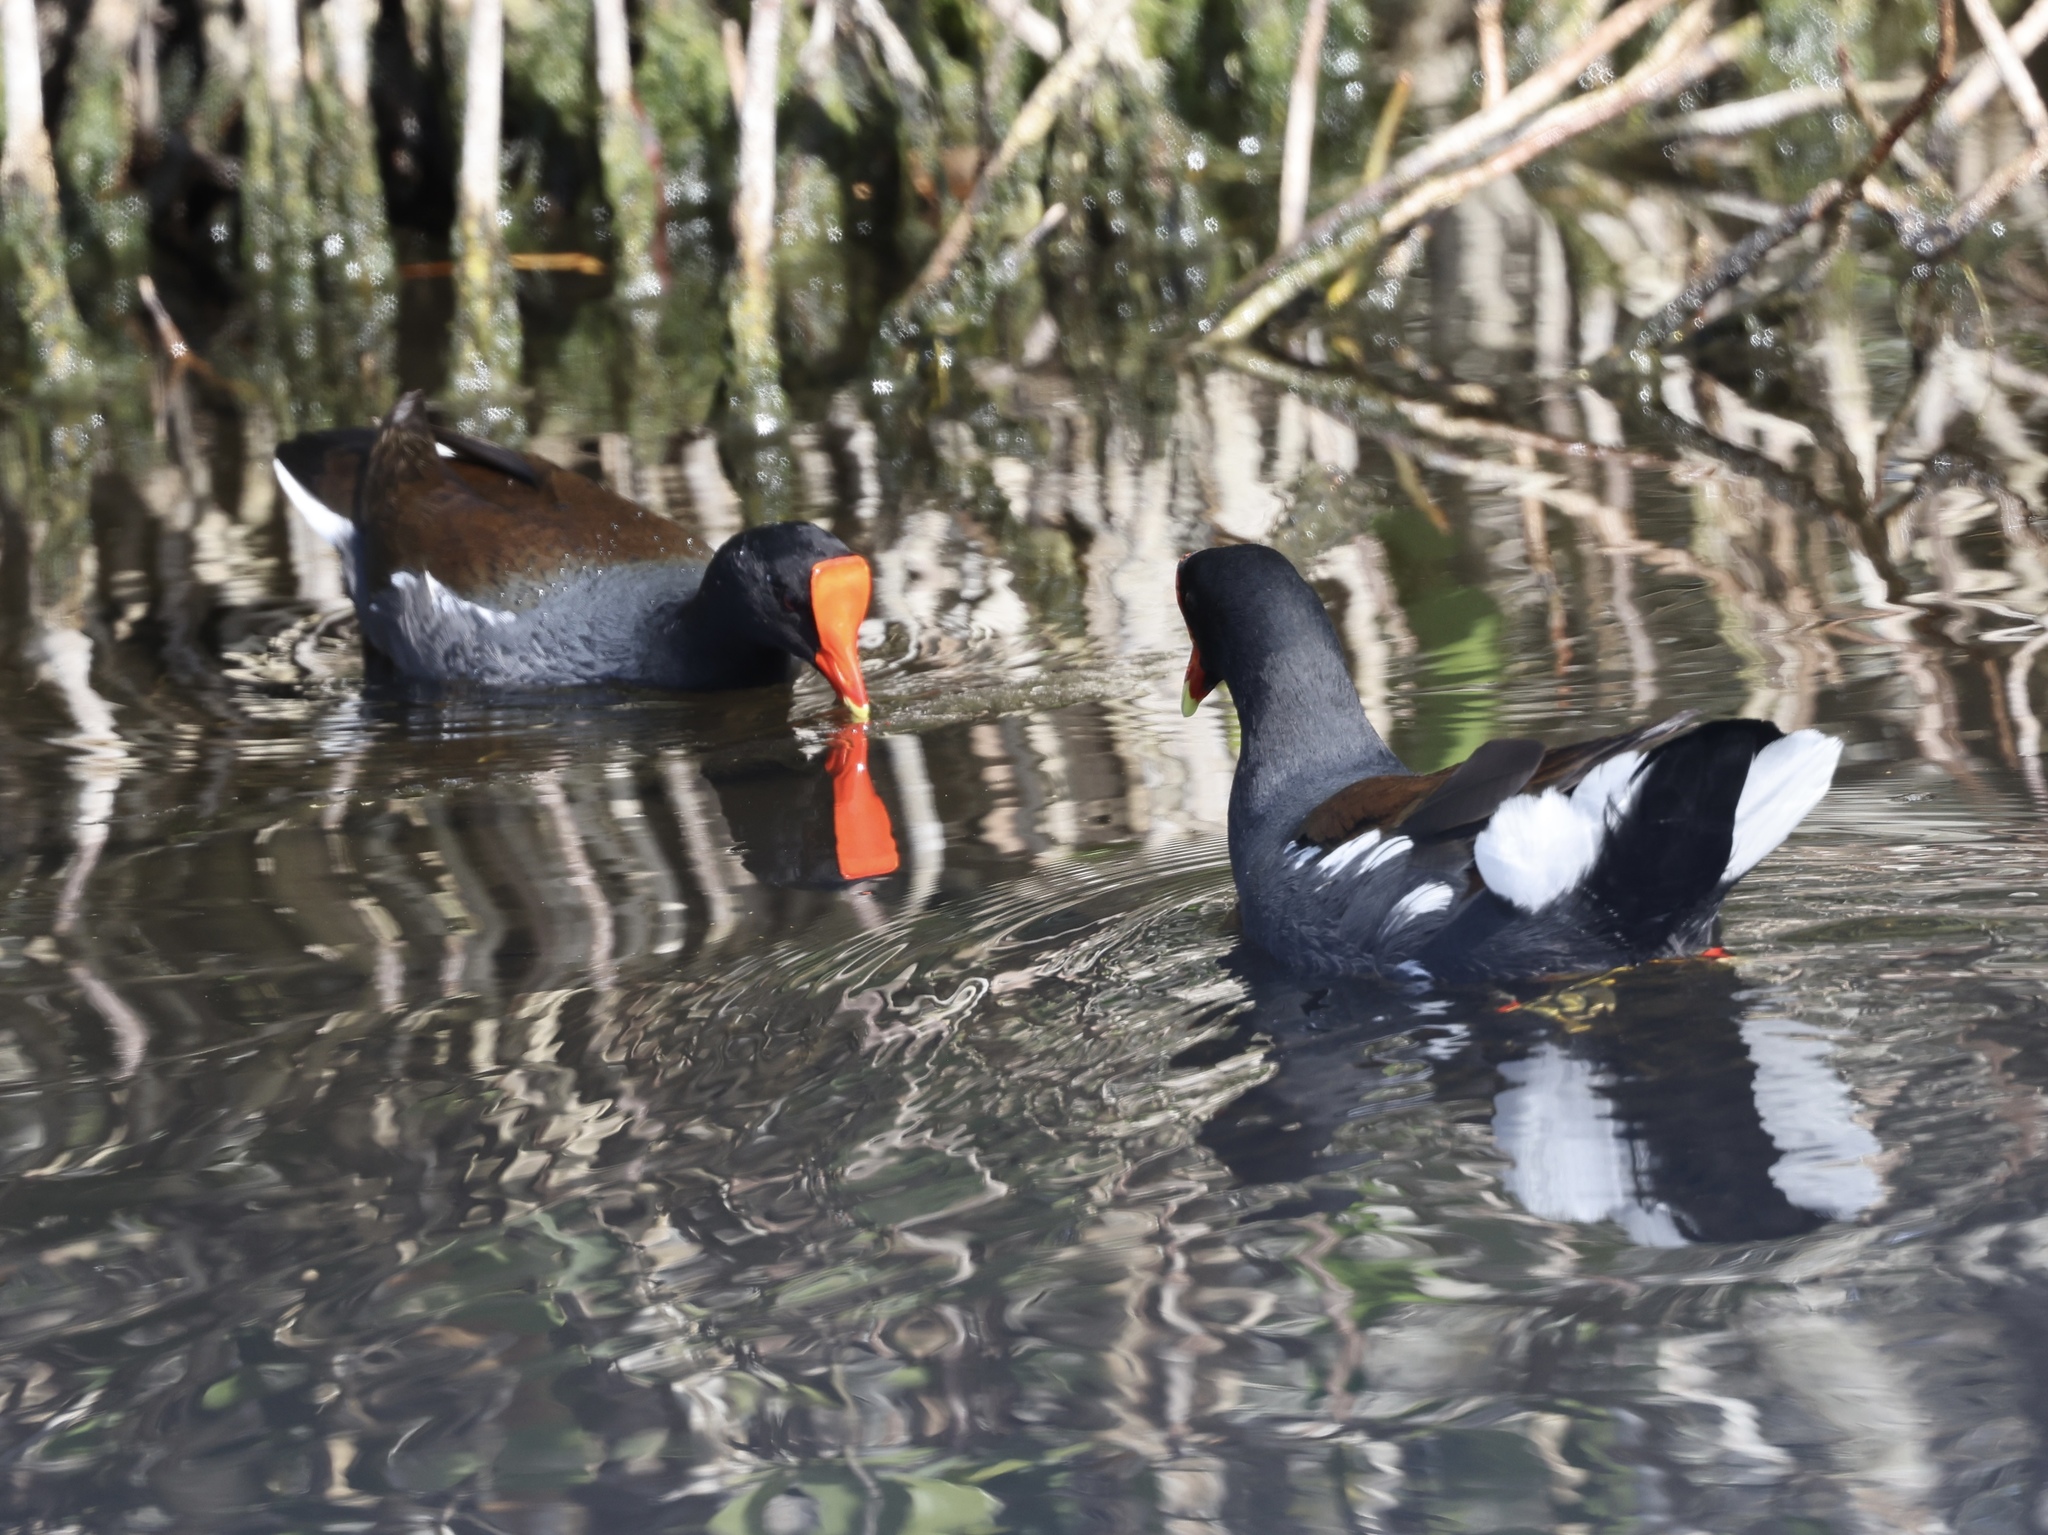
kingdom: Animalia
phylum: Chordata
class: Aves
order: Gruiformes
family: Rallidae
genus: Gallinula
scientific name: Gallinula chloropus
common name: Common moorhen
